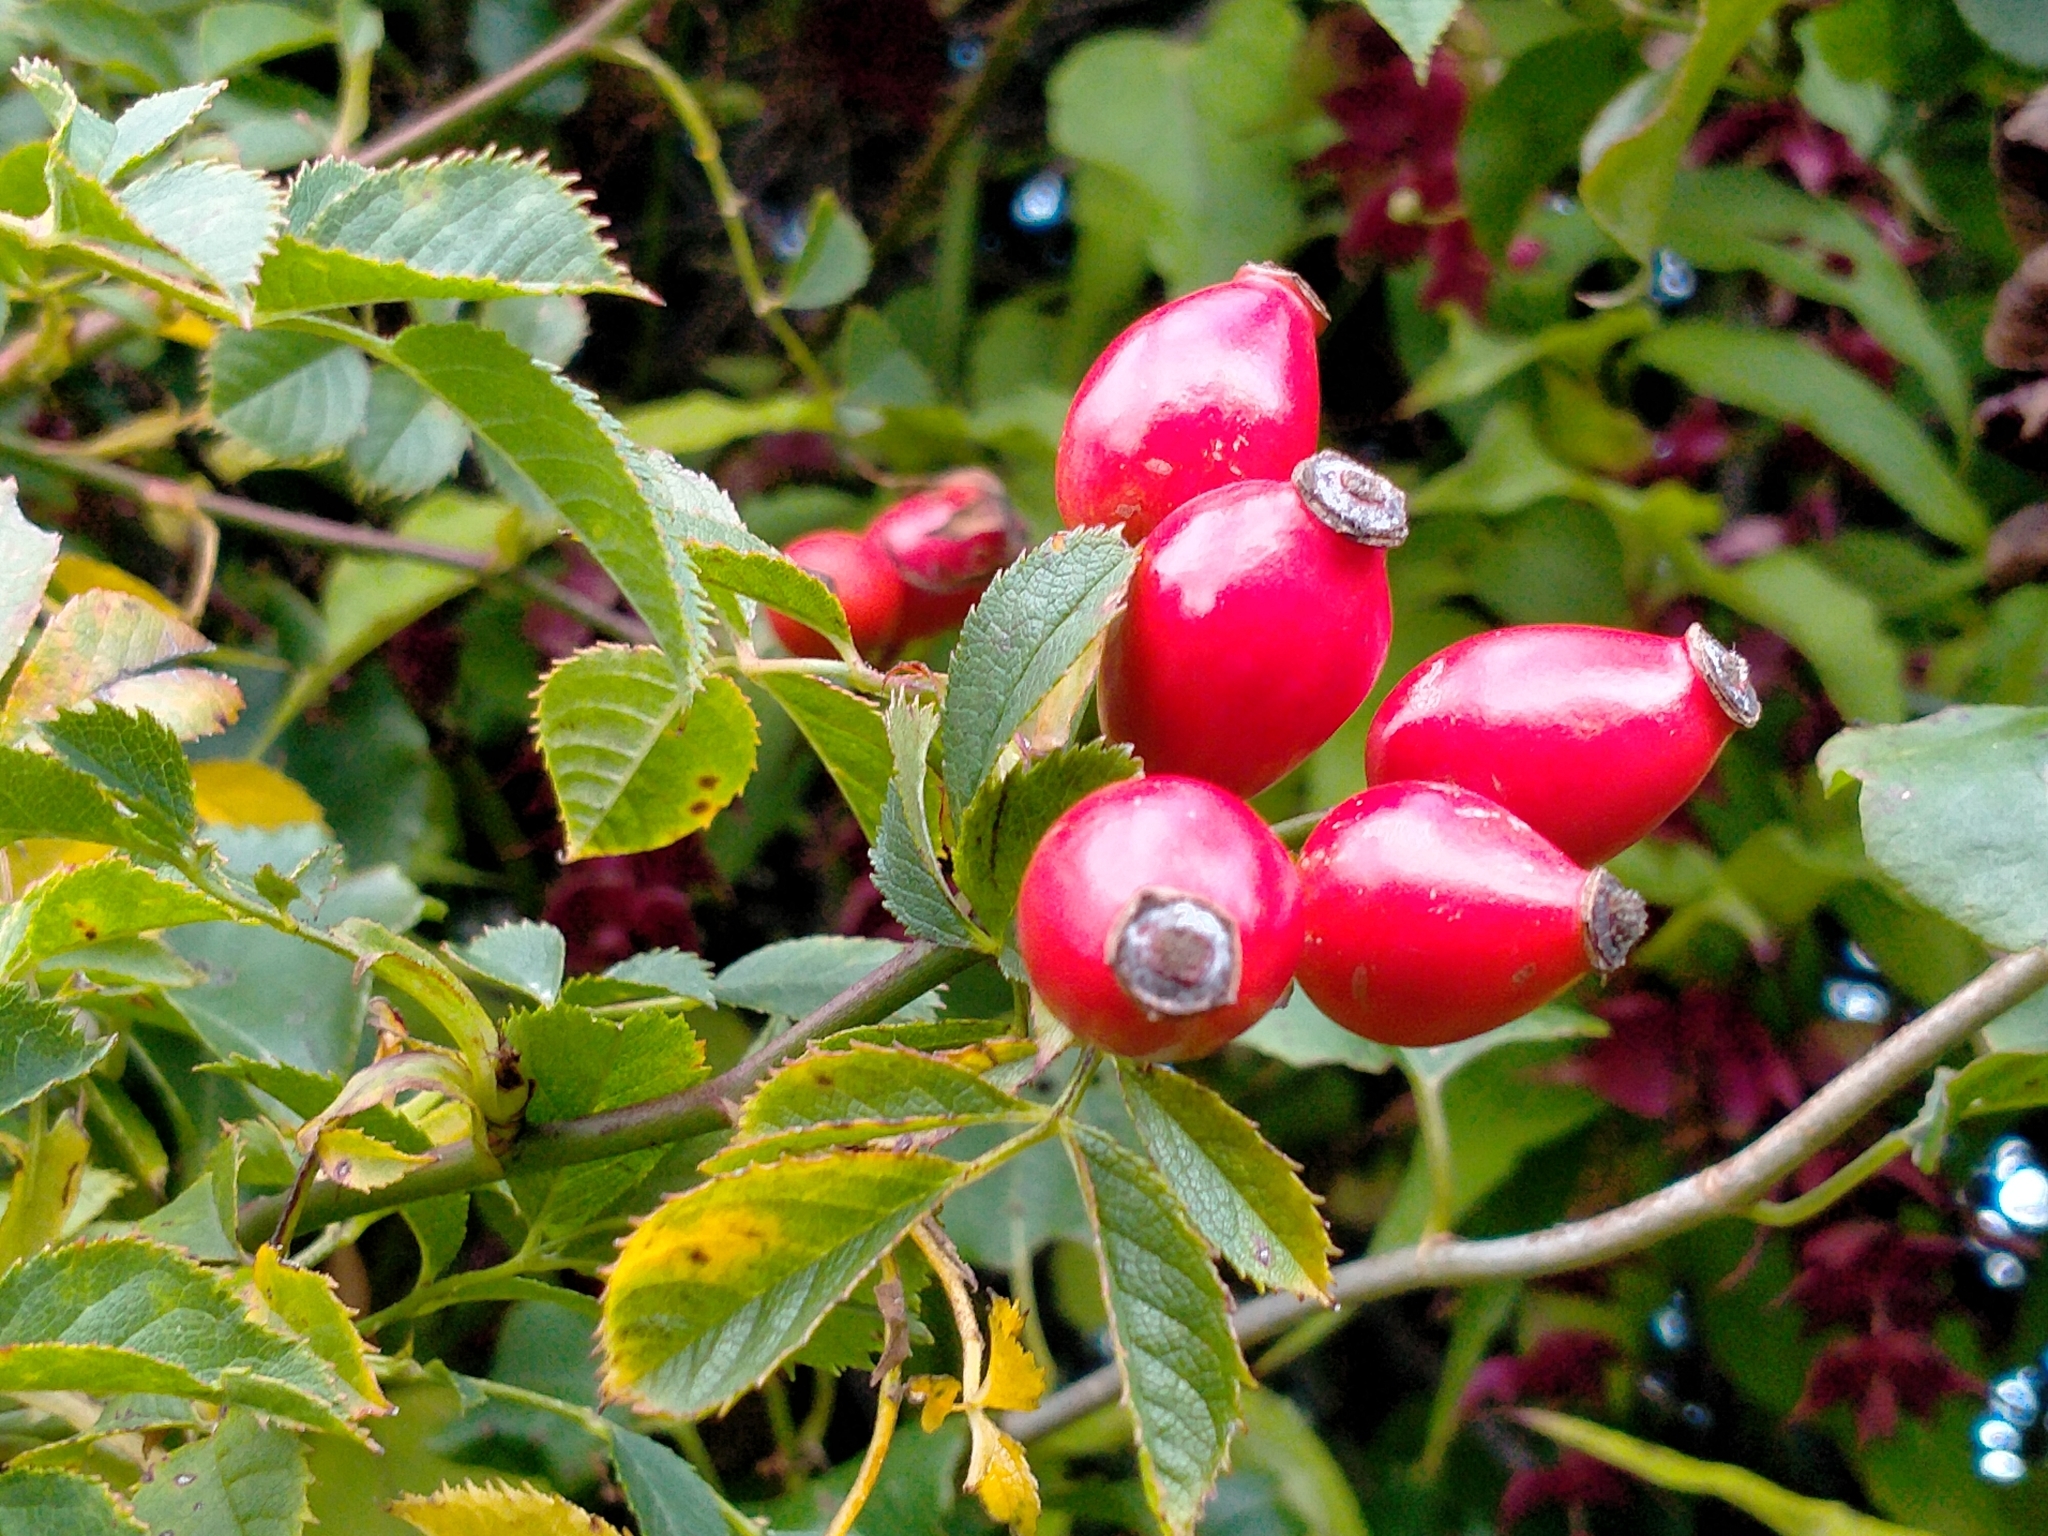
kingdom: Plantae
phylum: Tracheophyta
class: Magnoliopsida
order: Rosales
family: Rosaceae
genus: Rosa
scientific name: Rosa rubiginosa
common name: Sweet-briar
